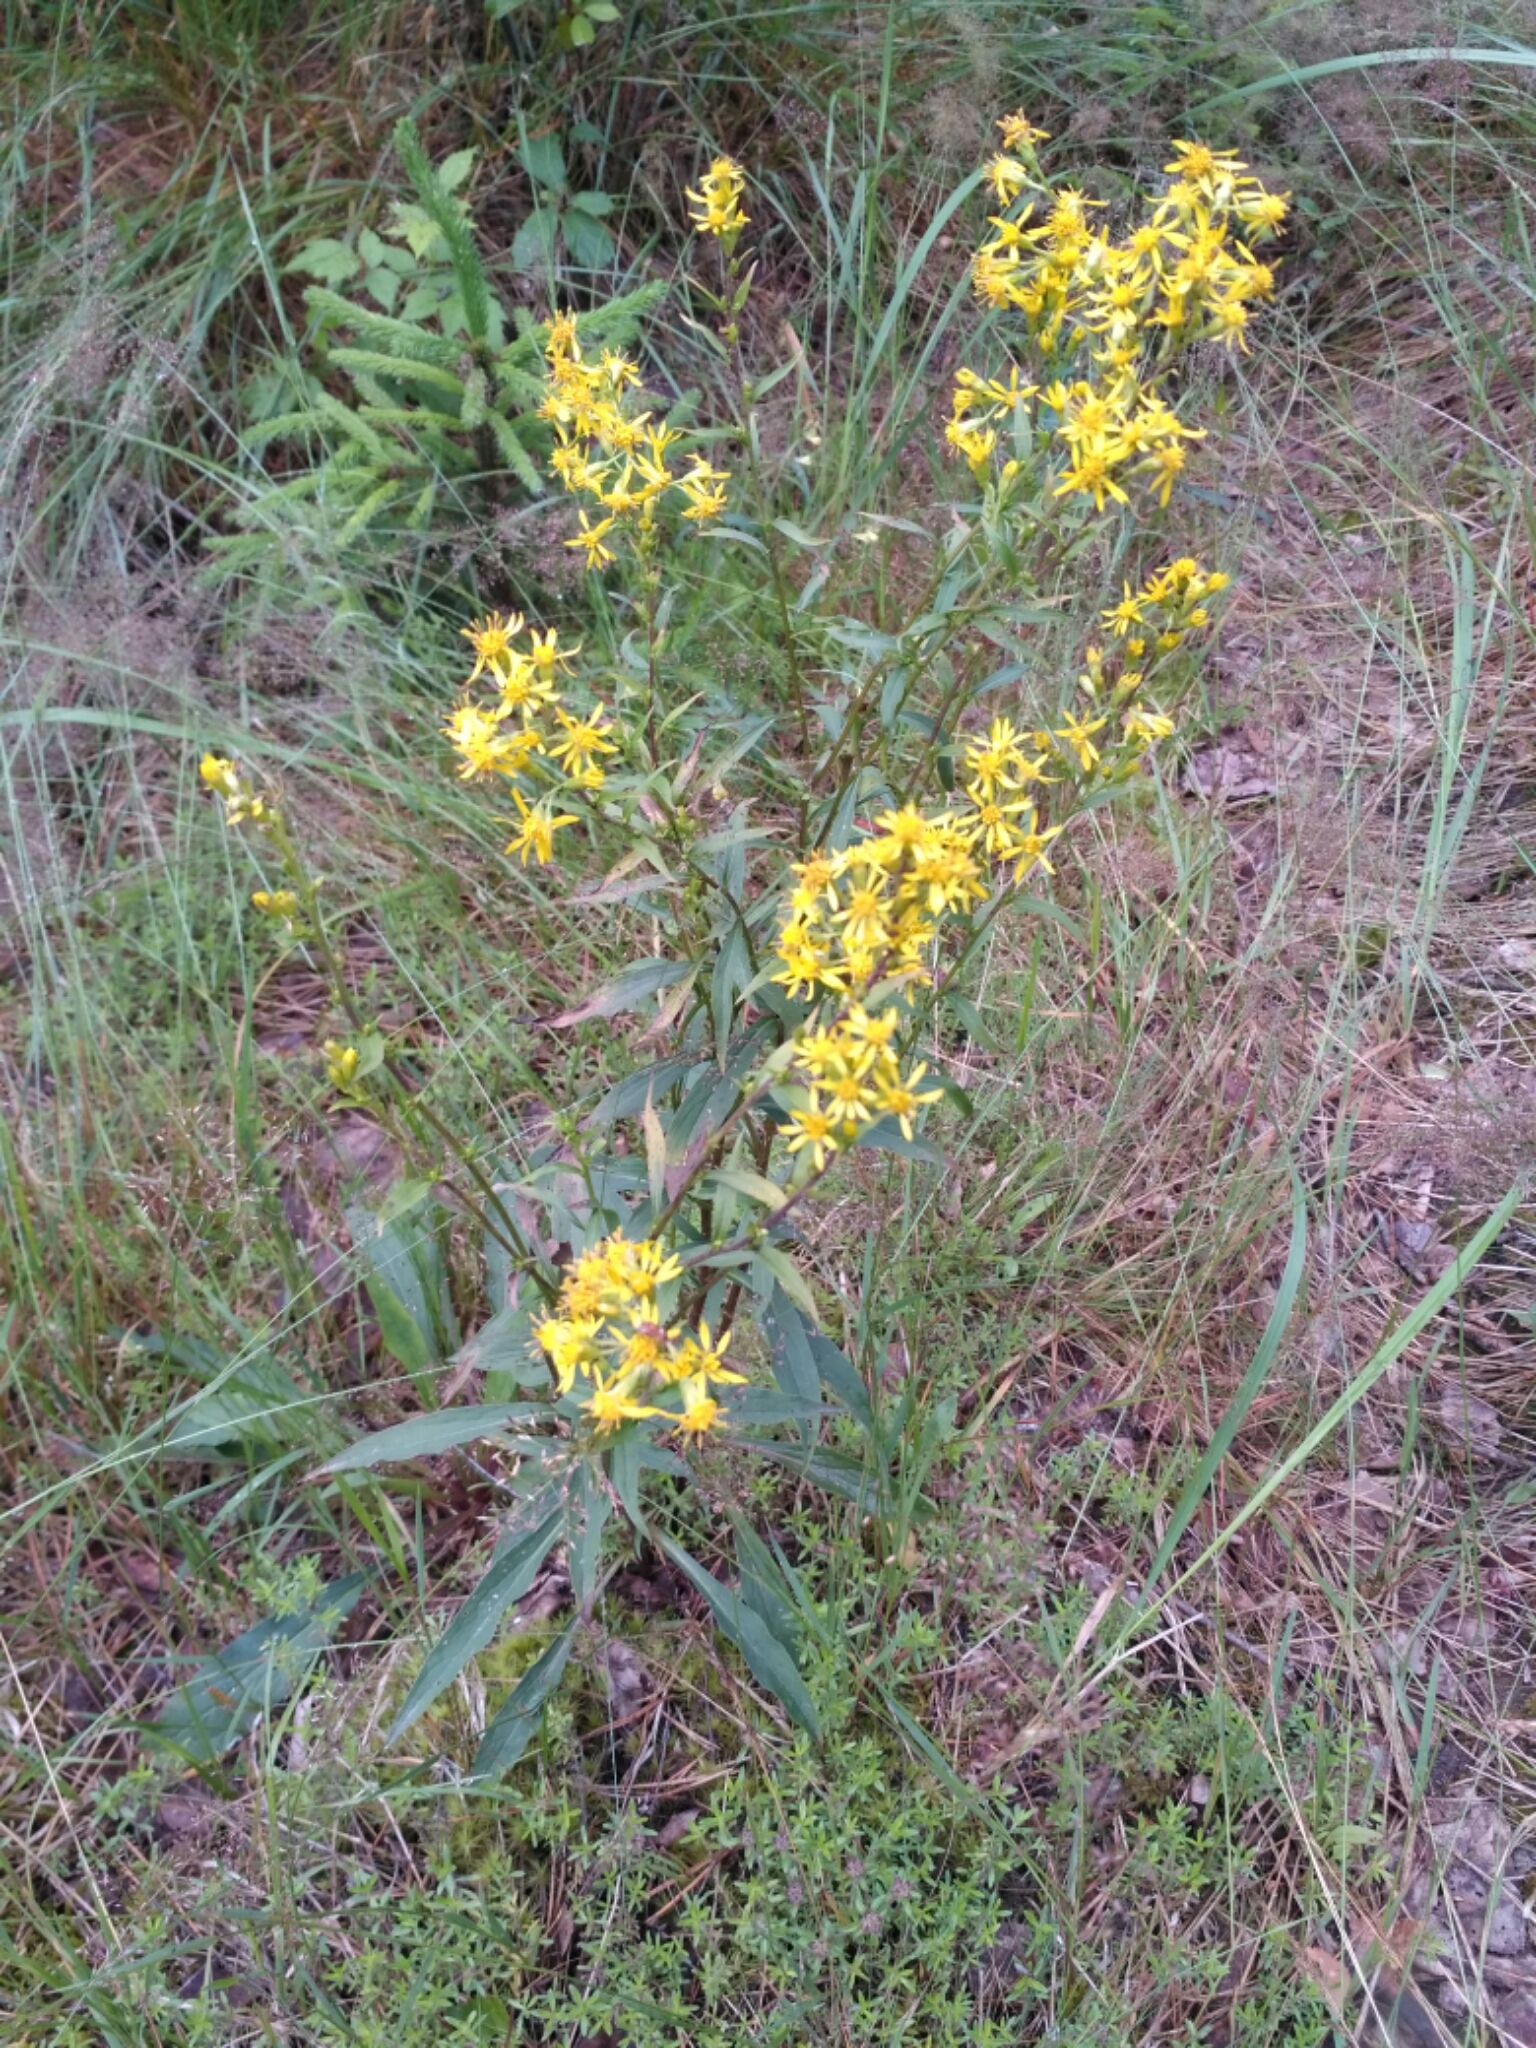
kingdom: Plantae
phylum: Tracheophyta
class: Magnoliopsida
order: Asterales
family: Asteraceae
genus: Solidago
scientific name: Solidago virgaurea
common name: Goldenrod
